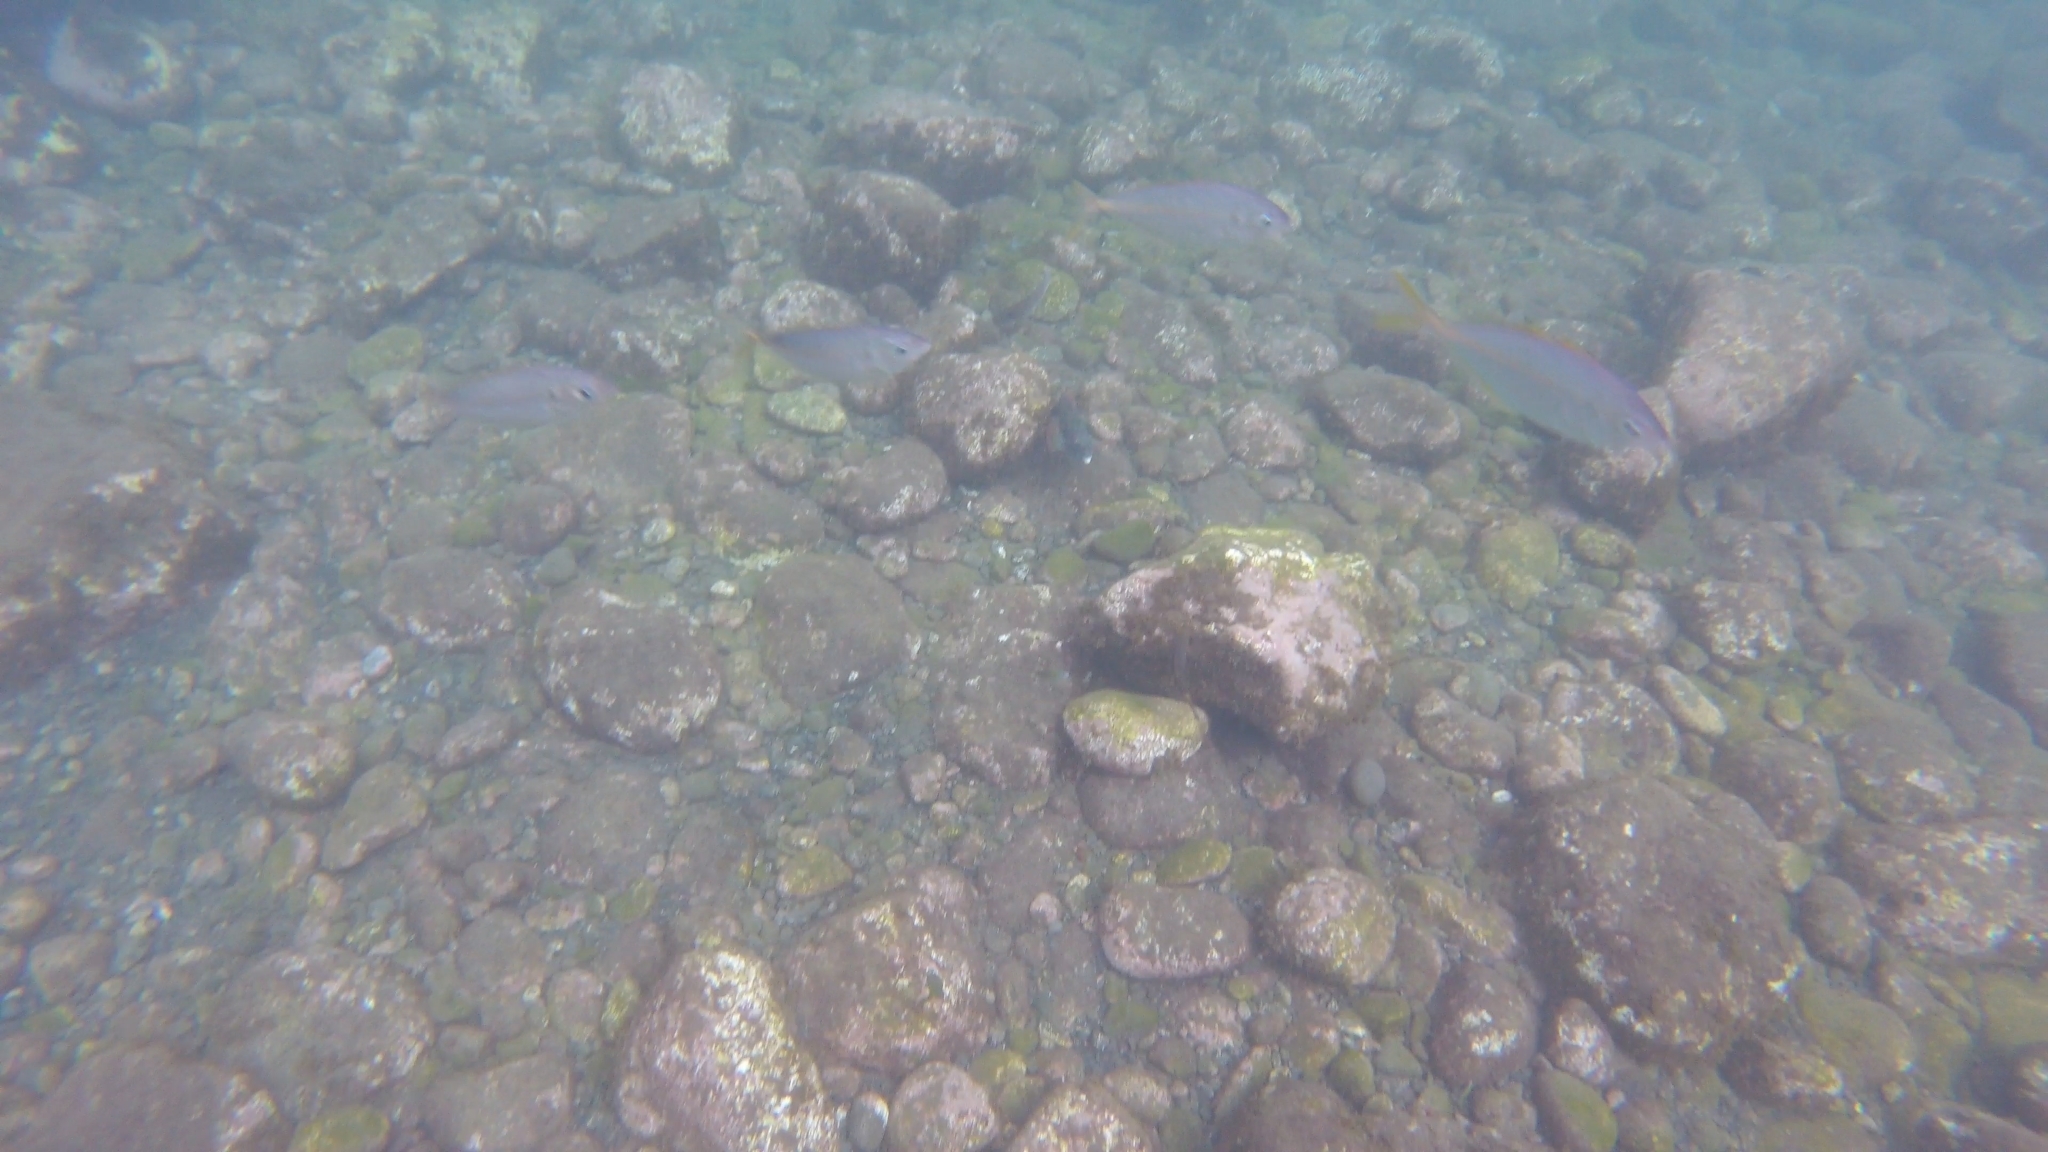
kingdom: Animalia
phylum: Chordata
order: Perciformes
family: Carangidae
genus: Pseudocaranx
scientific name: Pseudocaranx dentex
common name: White trevally
